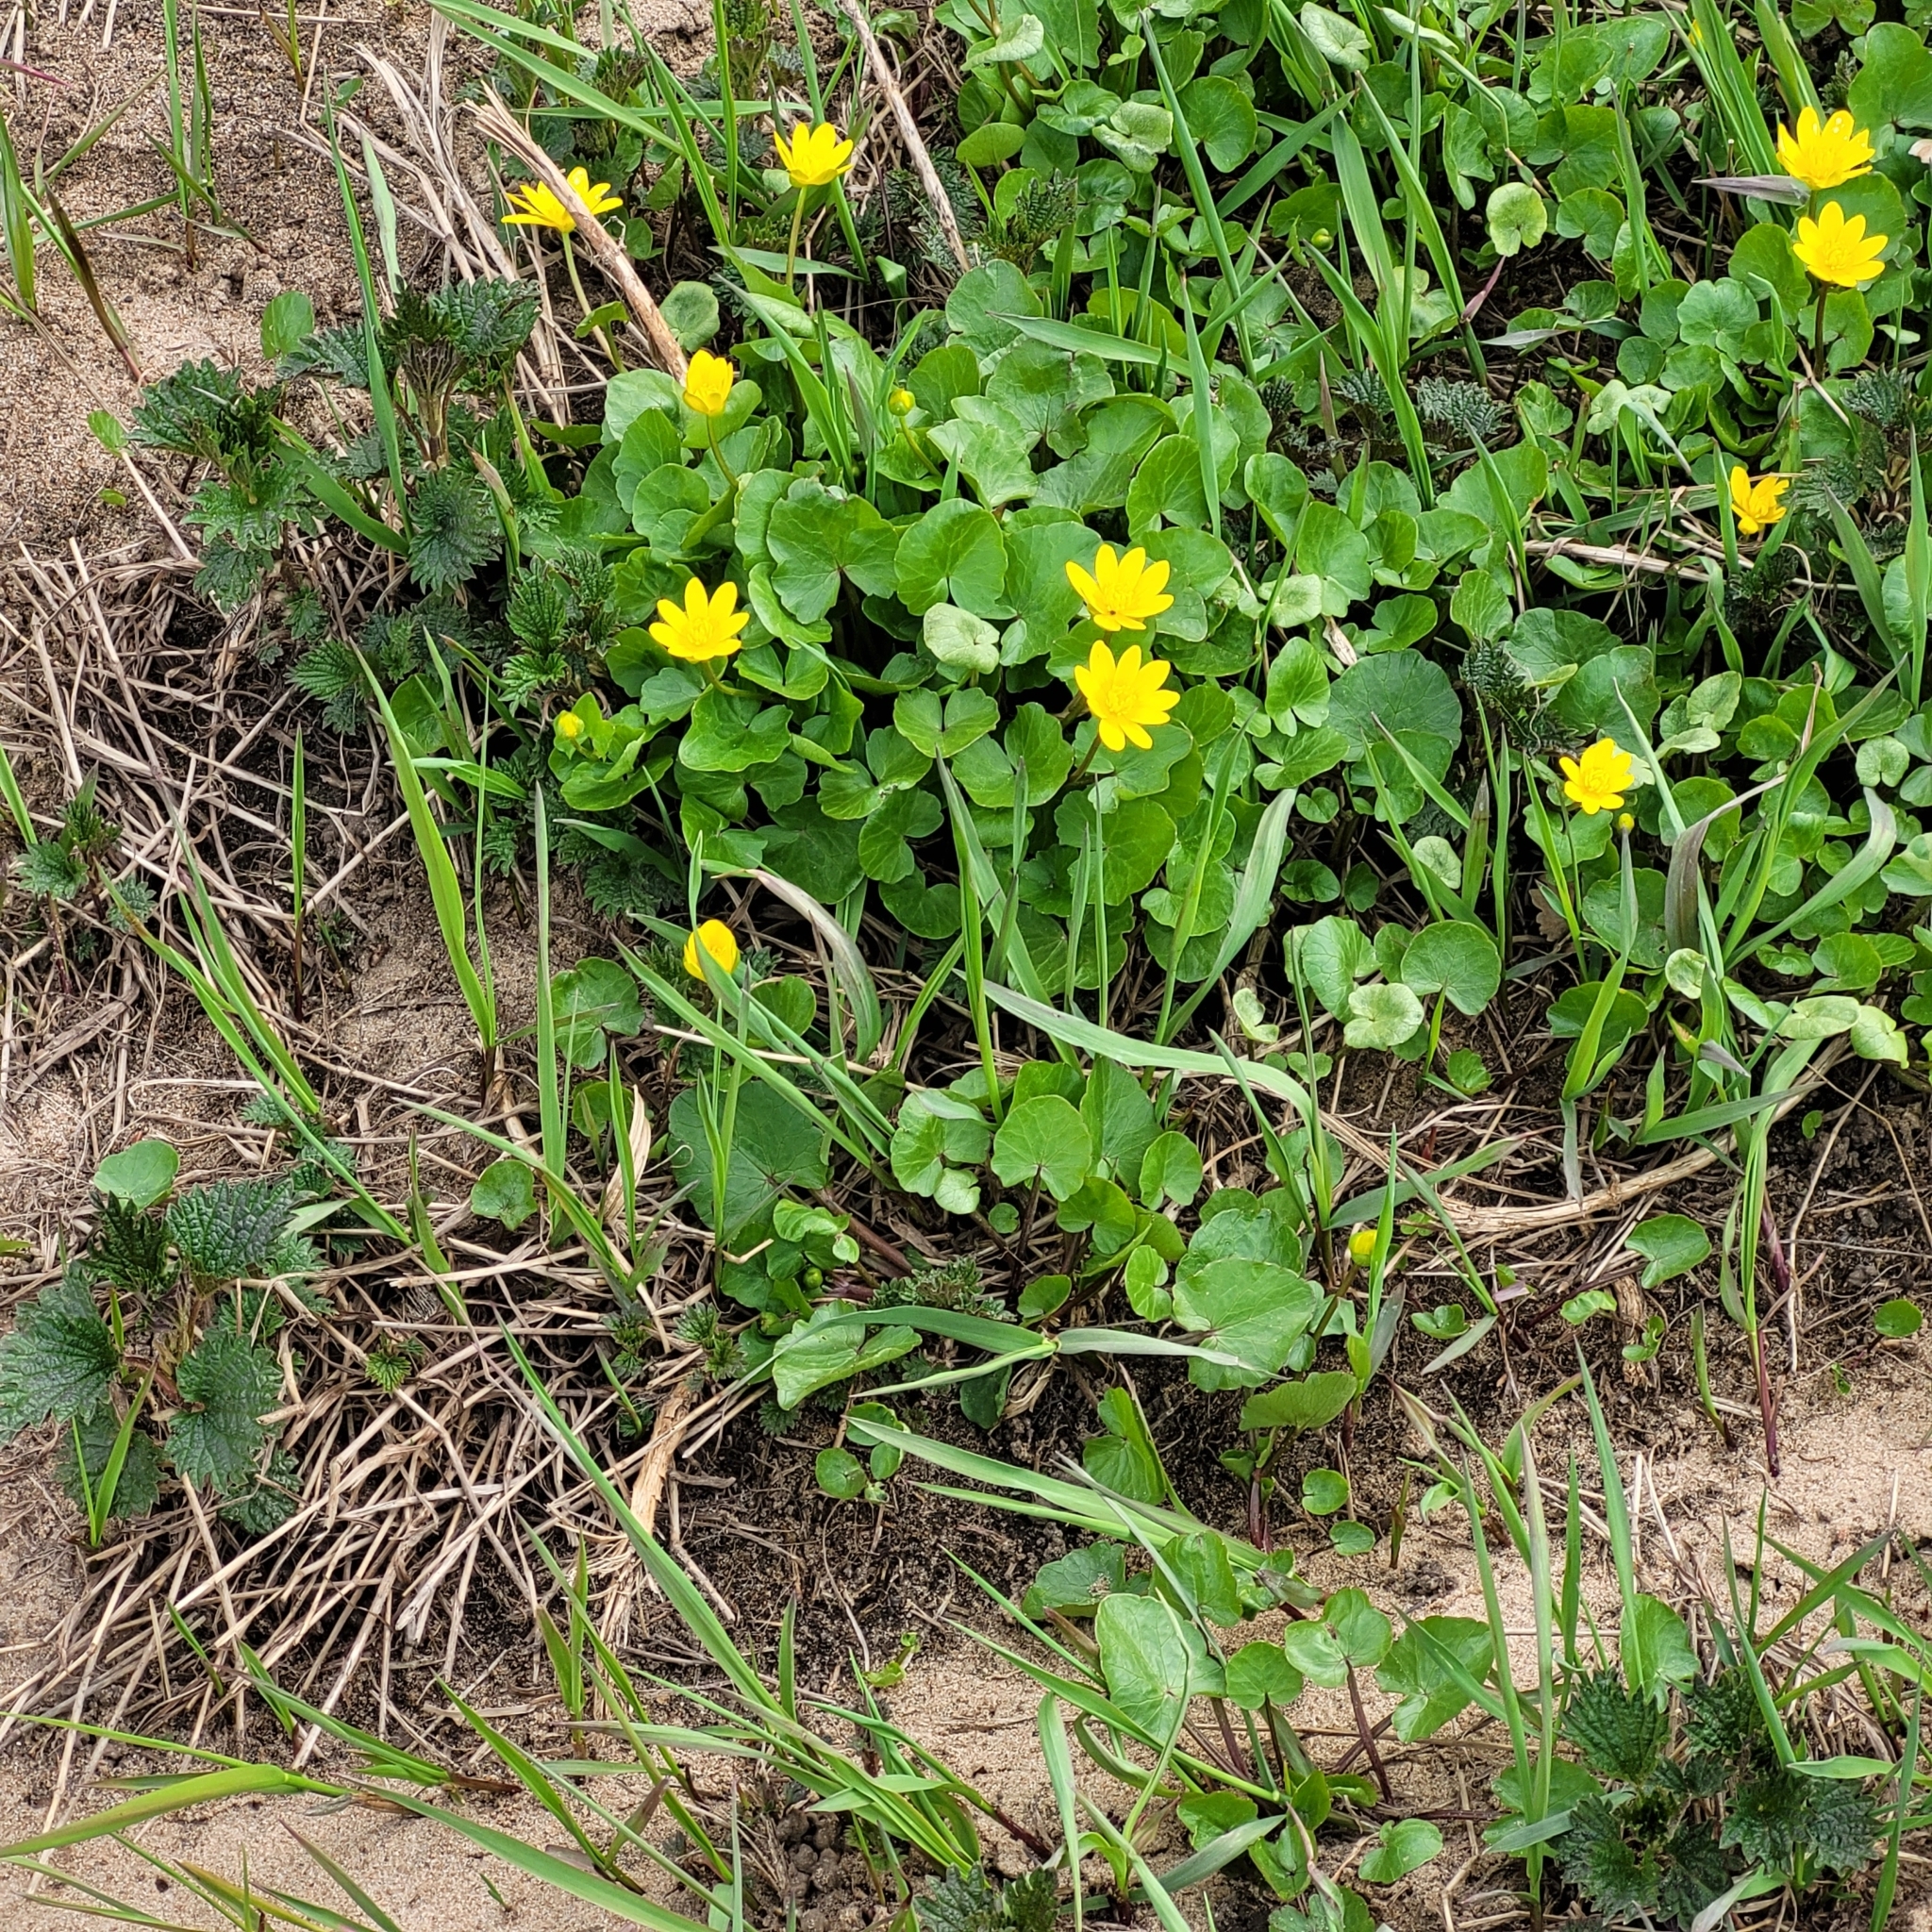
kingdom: Plantae
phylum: Tracheophyta
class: Magnoliopsida
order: Ranunculales
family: Ranunculaceae
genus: Ficaria
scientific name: Ficaria verna
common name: Lesser celandine
